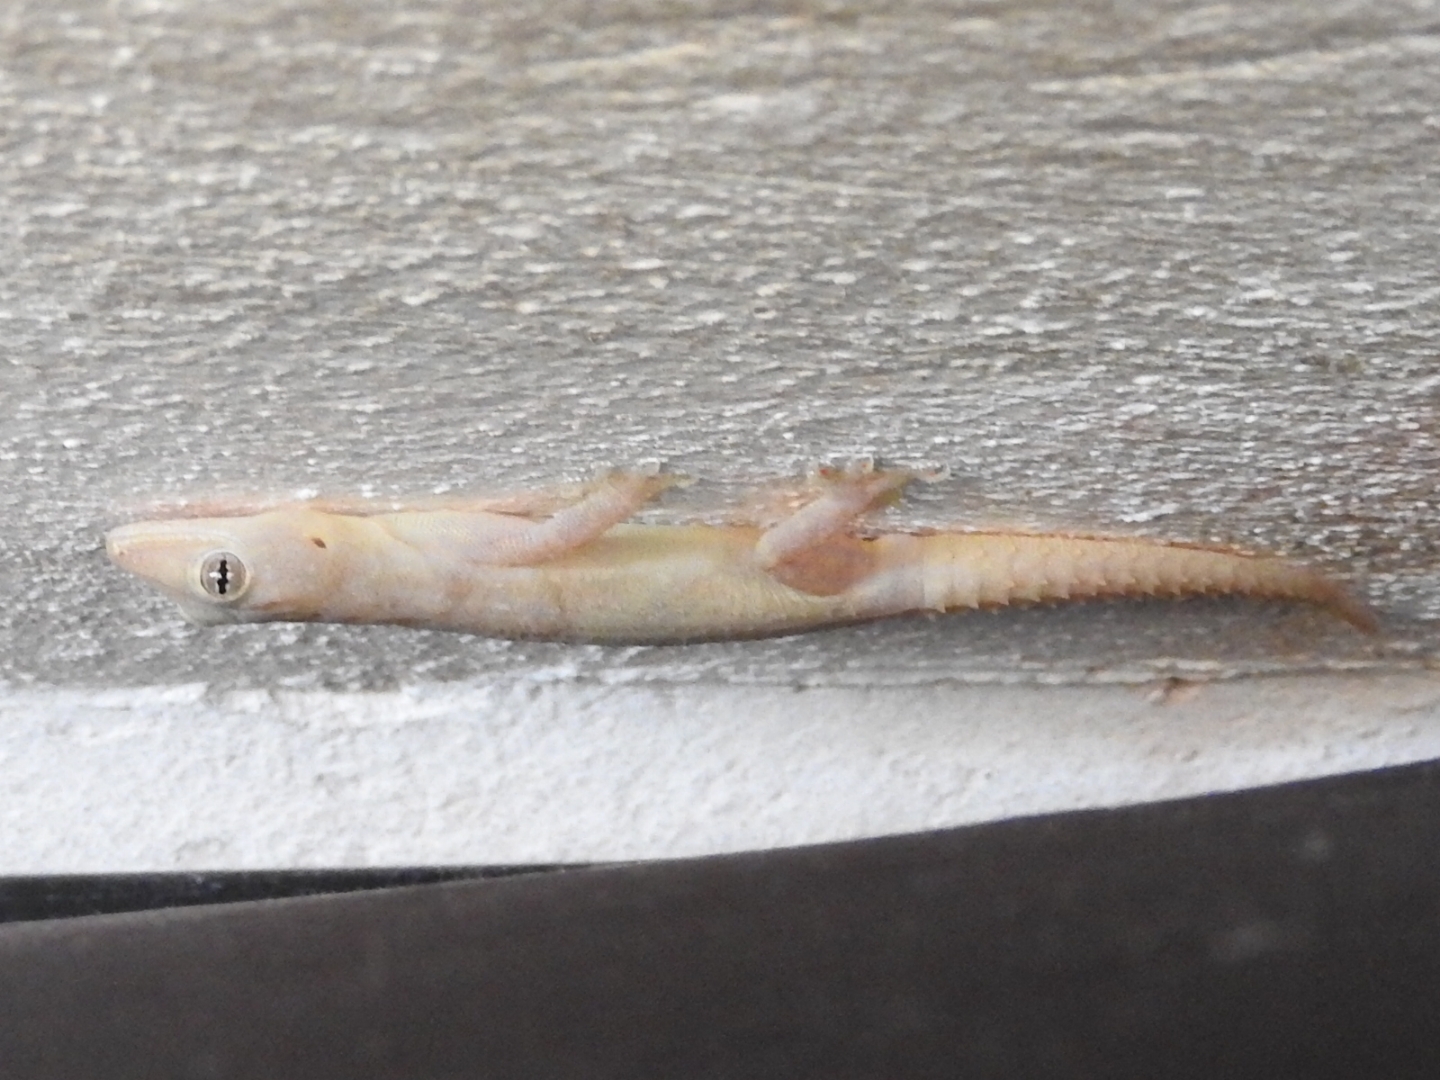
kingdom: Animalia
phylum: Chordata
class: Squamata
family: Gekkonidae
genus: Hemidactylus
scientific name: Hemidactylus frenatus
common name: Common house gecko
